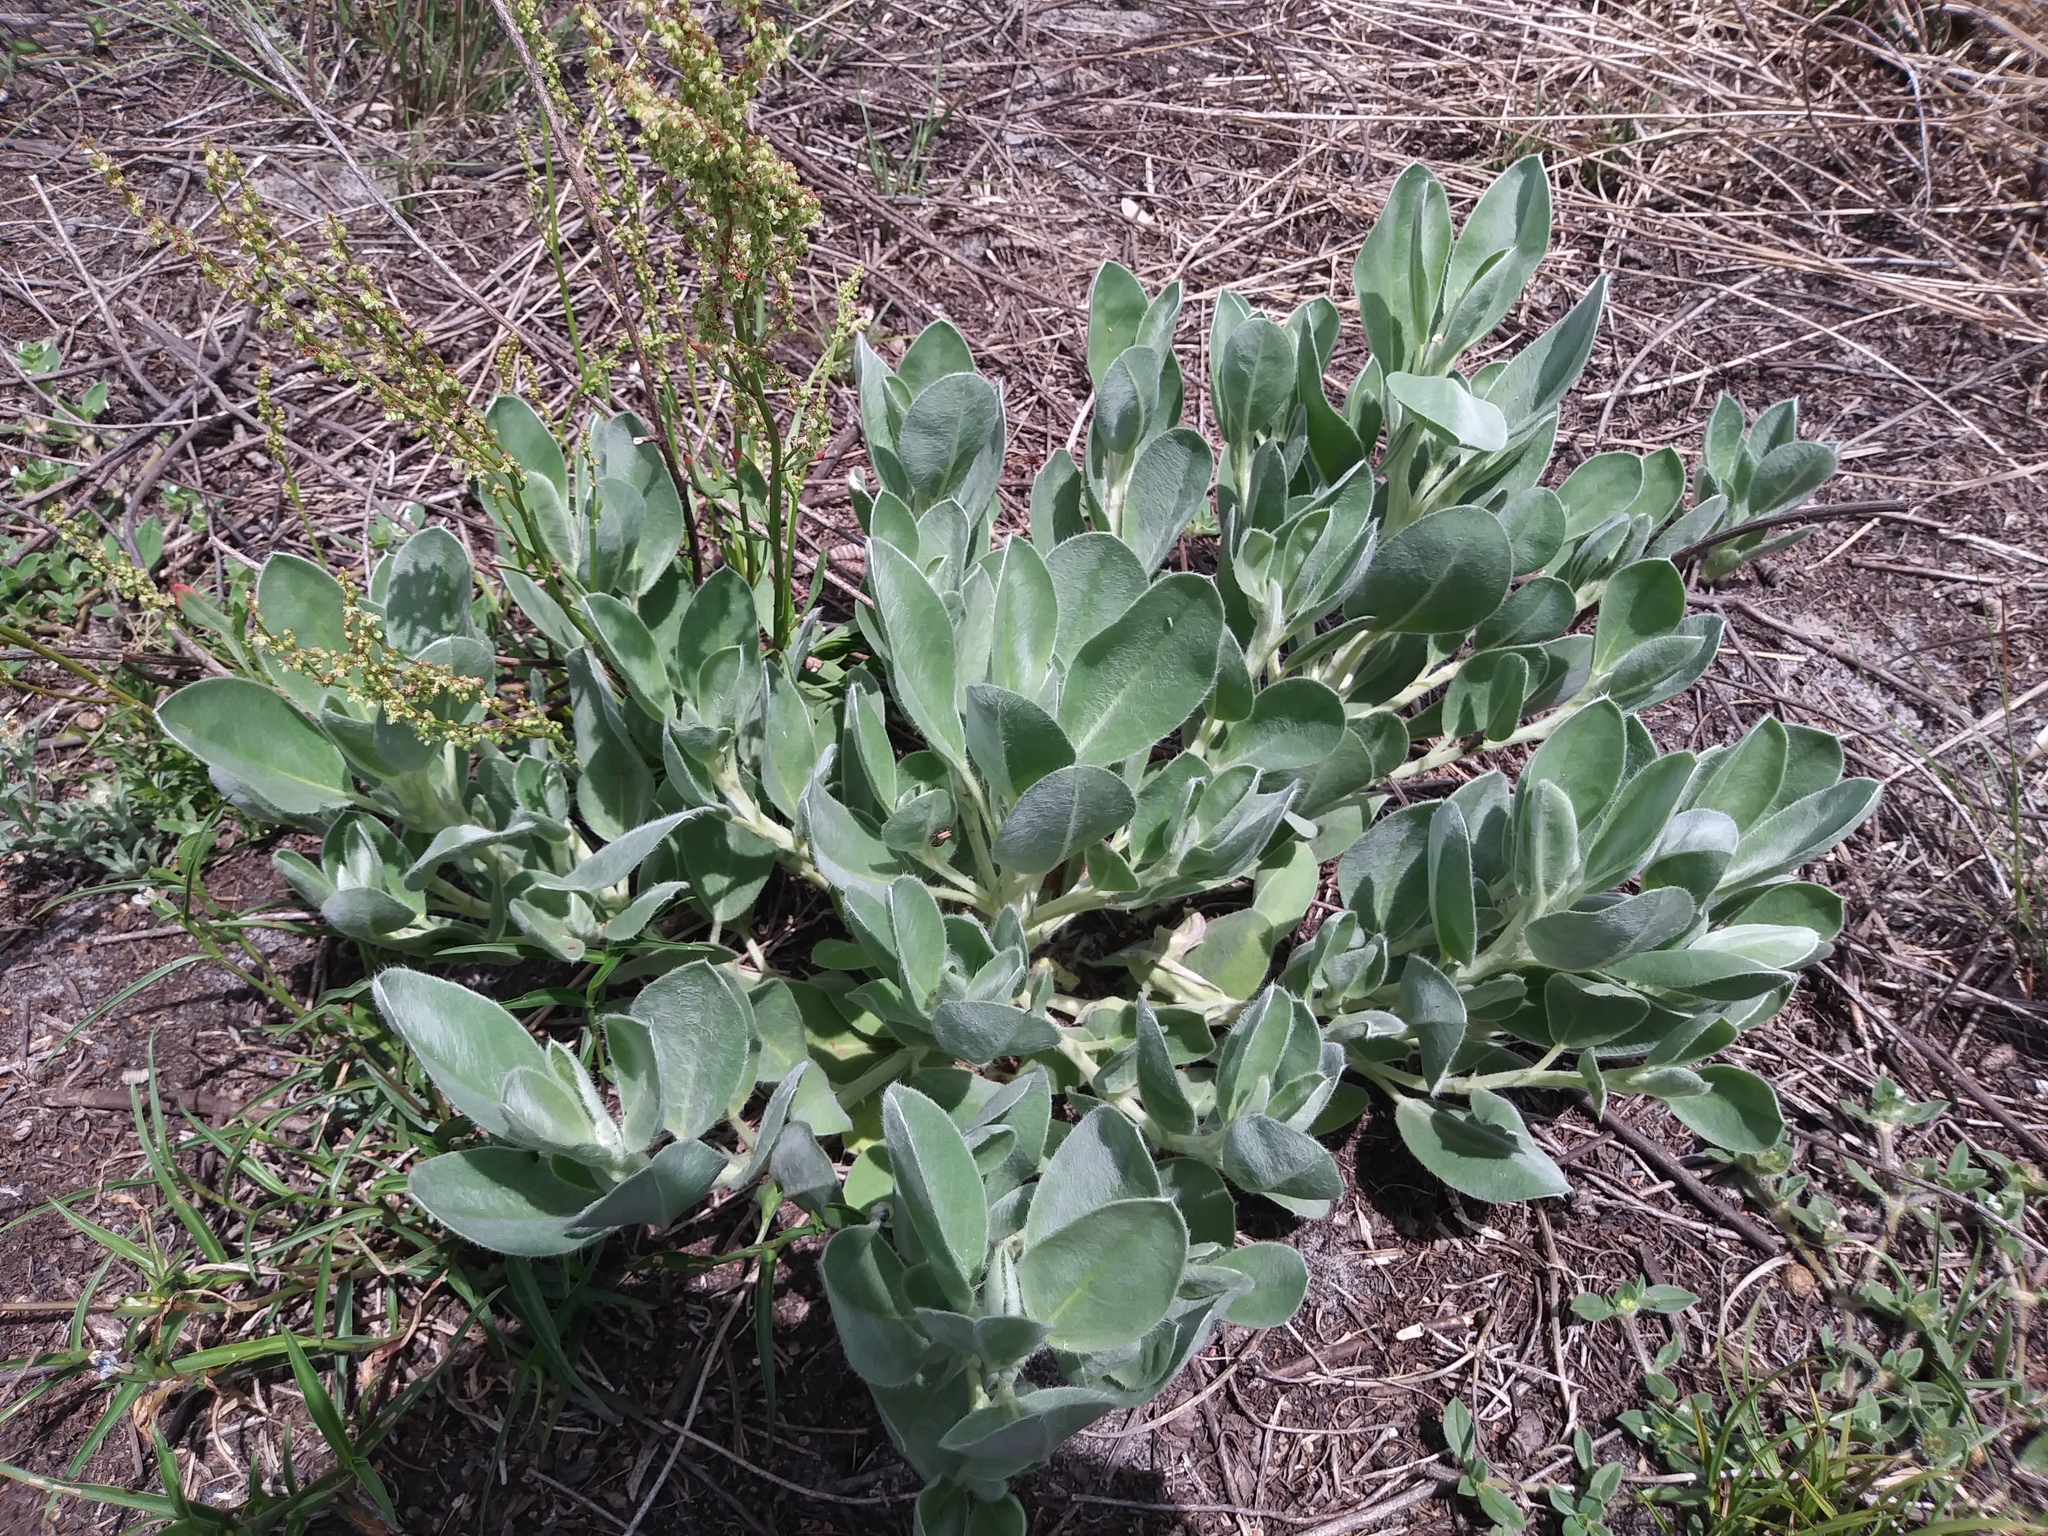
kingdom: Plantae
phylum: Tracheophyta
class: Magnoliopsida
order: Fabales
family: Fabaceae
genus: Lupinus
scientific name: Lupinus
